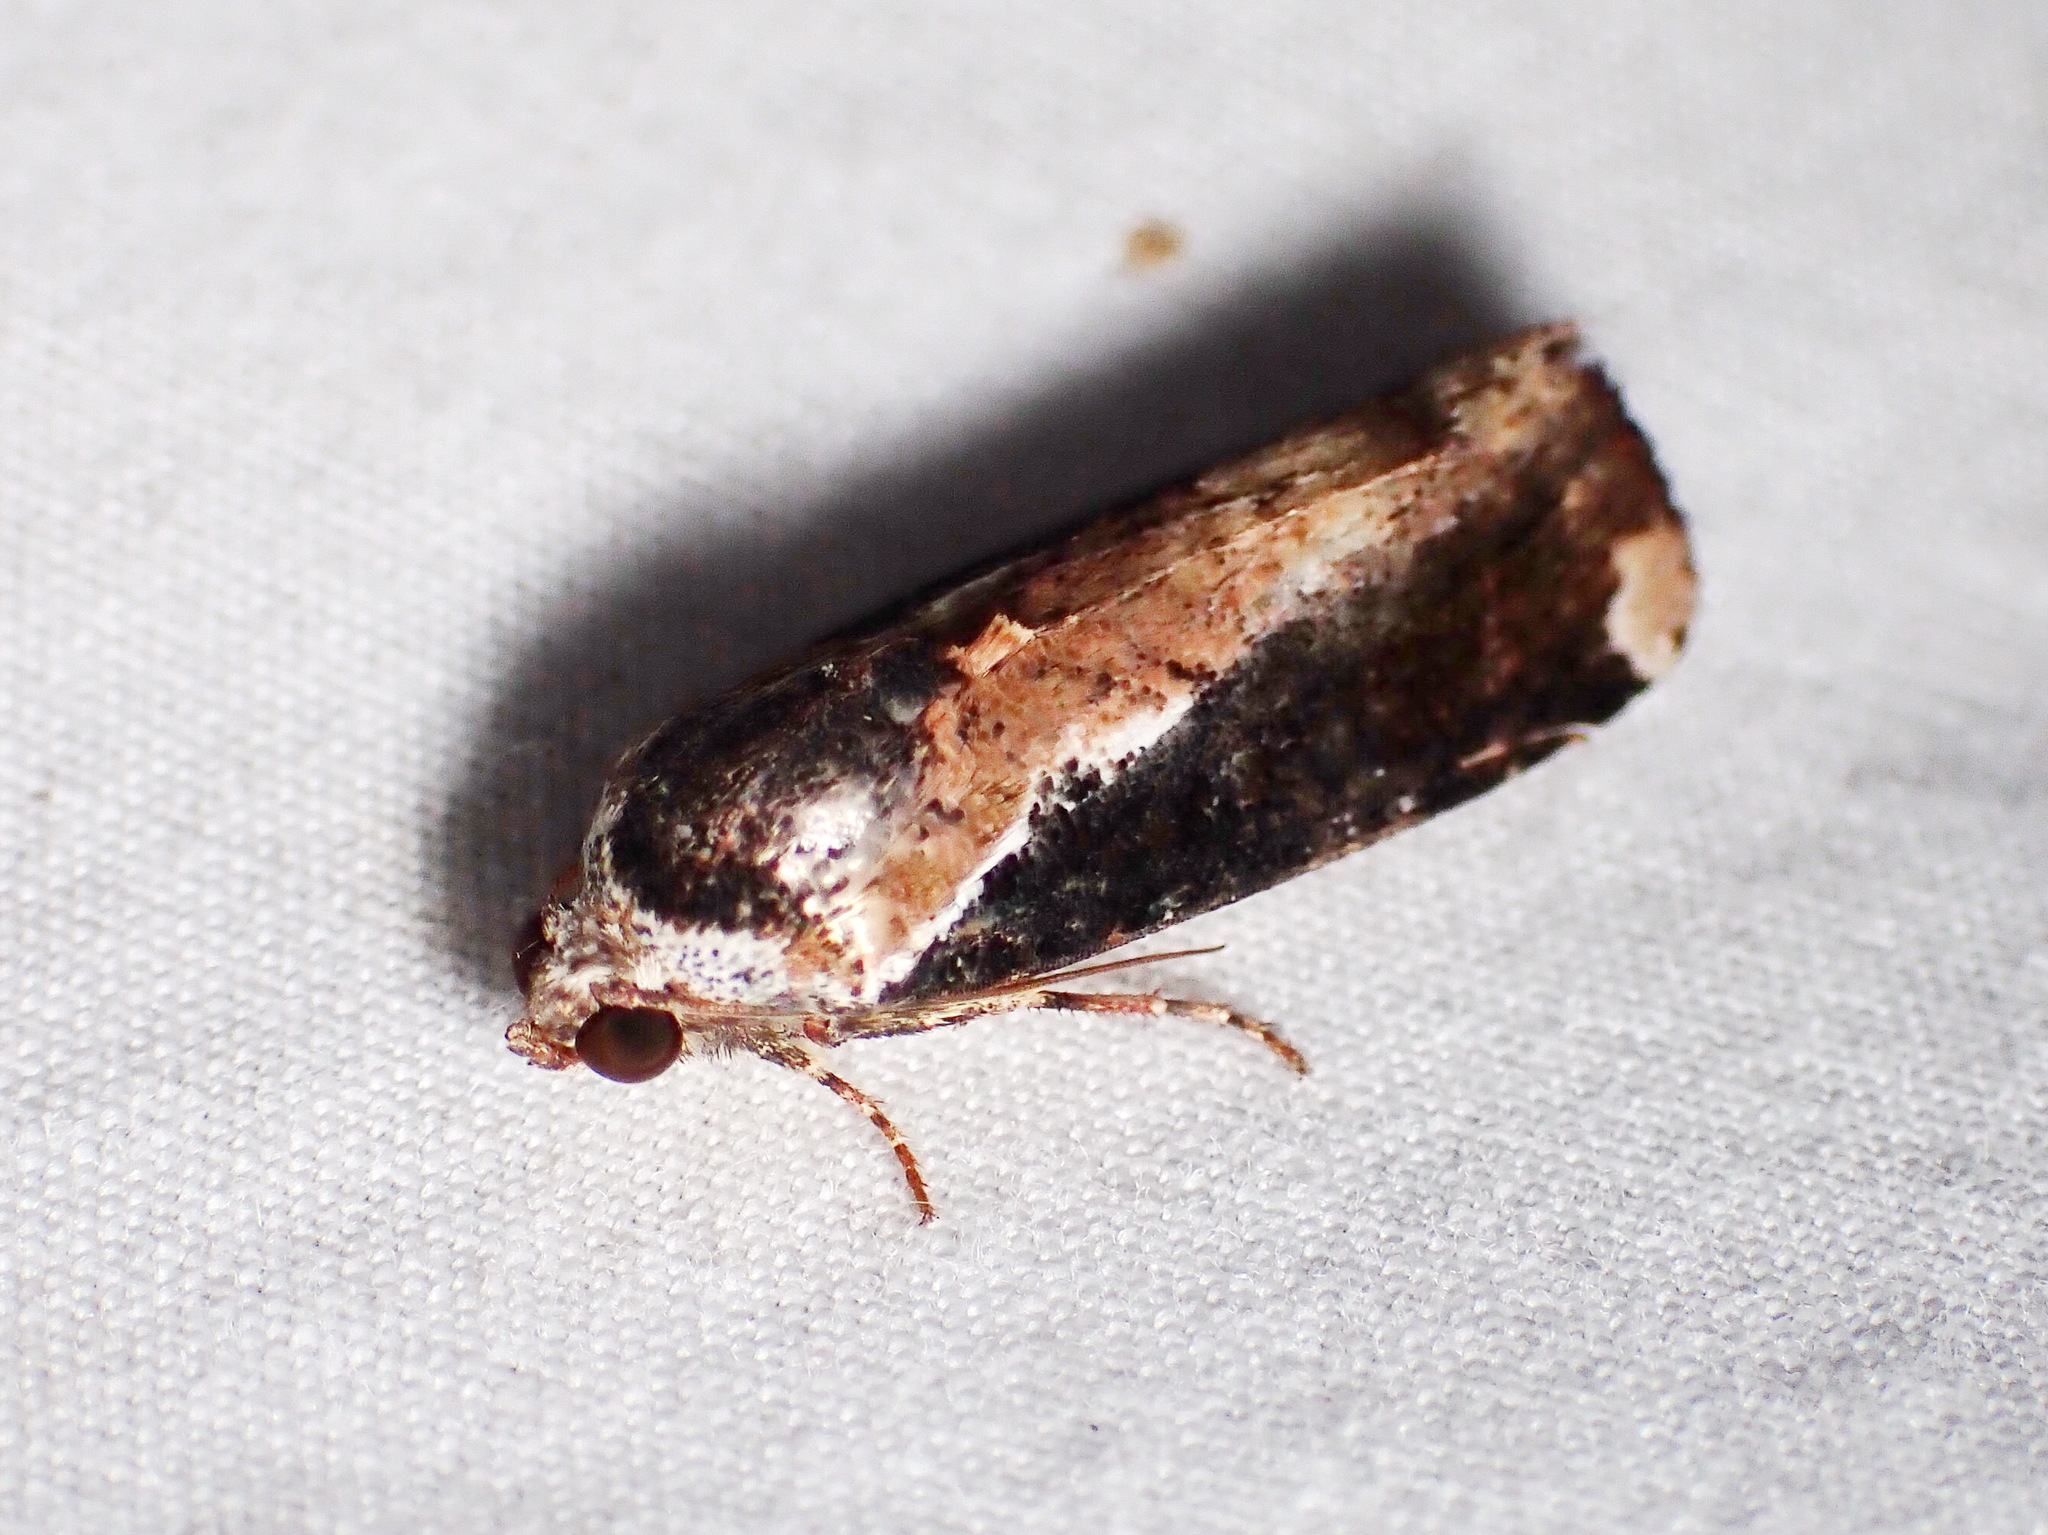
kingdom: Animalia
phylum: Arthropoda
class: Insecta
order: Lepidoptera
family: Noctuidae
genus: Magusa
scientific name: Magusa divaricata
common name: Orb narrow-winged moth
